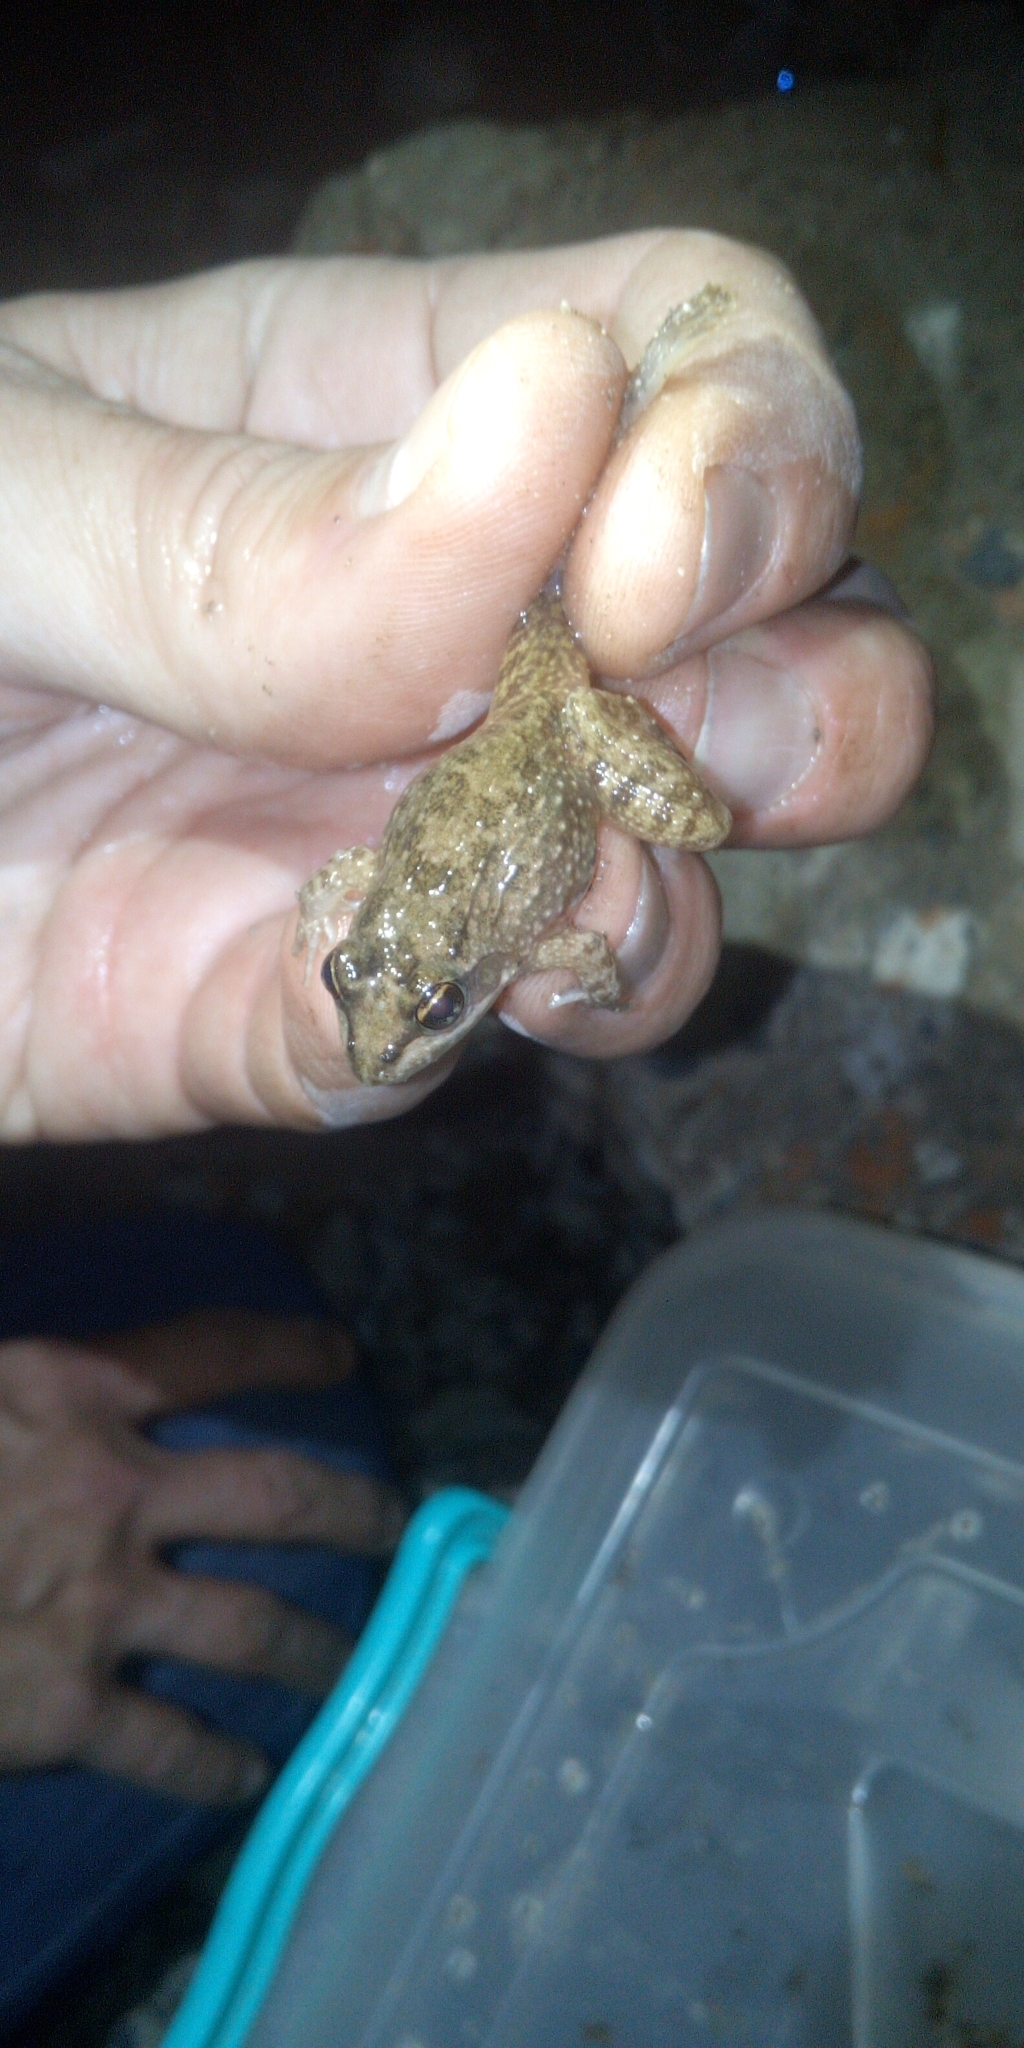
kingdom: Animalia
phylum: Chordata
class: Amphibia
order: Anura
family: Pyxicephalidae
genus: Amietia
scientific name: Amietia fuscigula
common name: Cape rana
